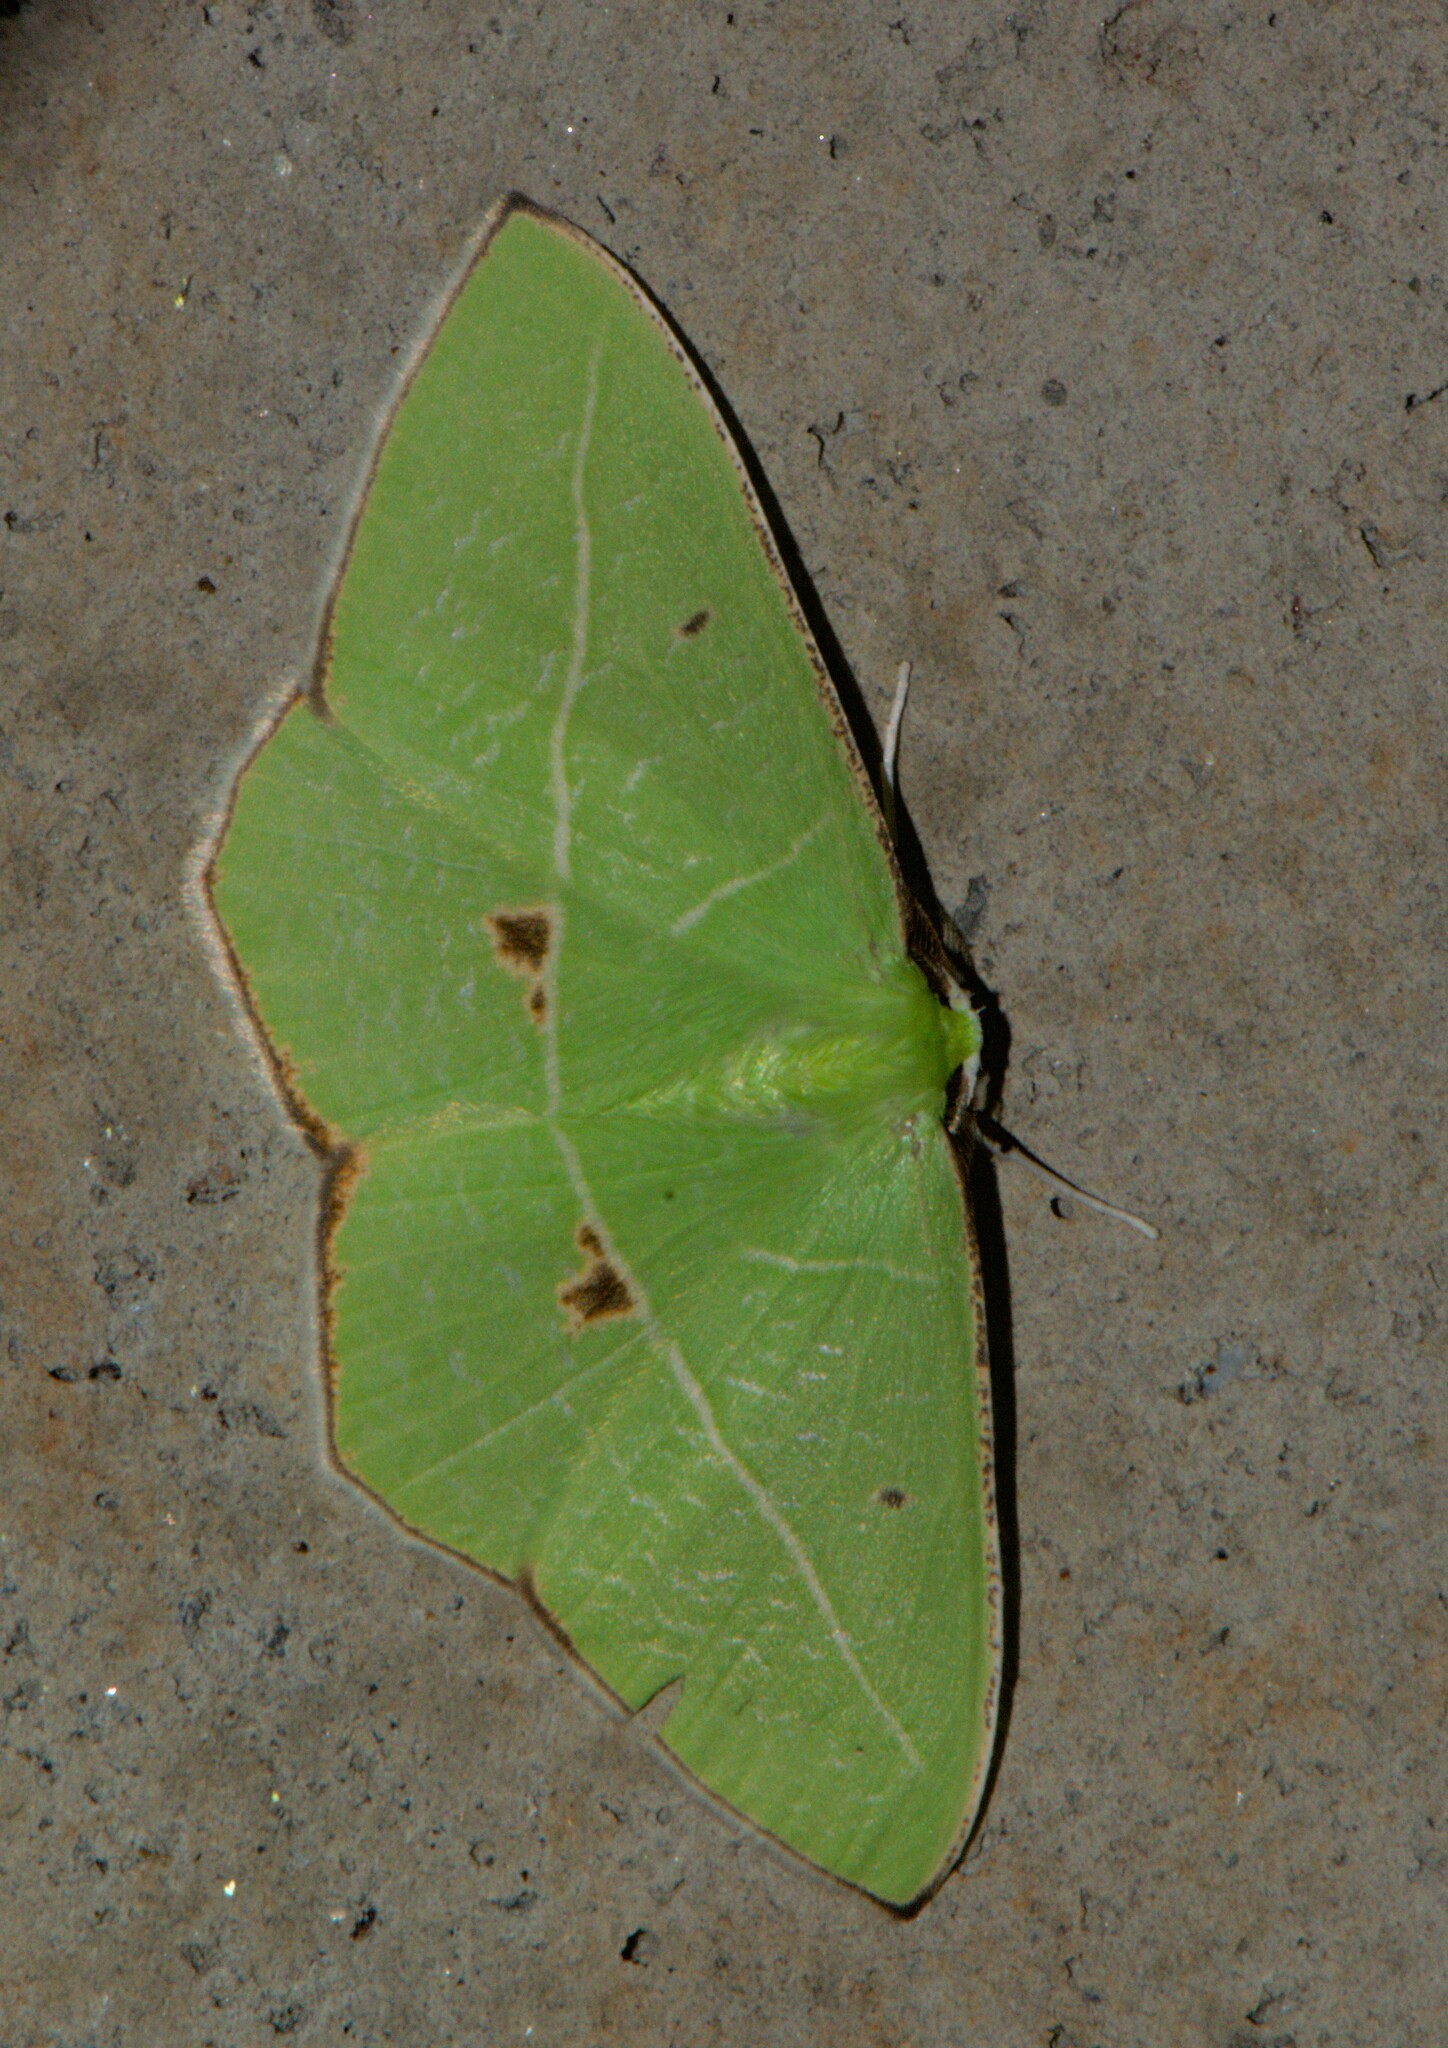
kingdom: Animalia
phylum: Arthropoda
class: Insecta
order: Lepidoptera
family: Geometridae
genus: Tanaoctenia
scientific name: Tanaoctenia haliaria
